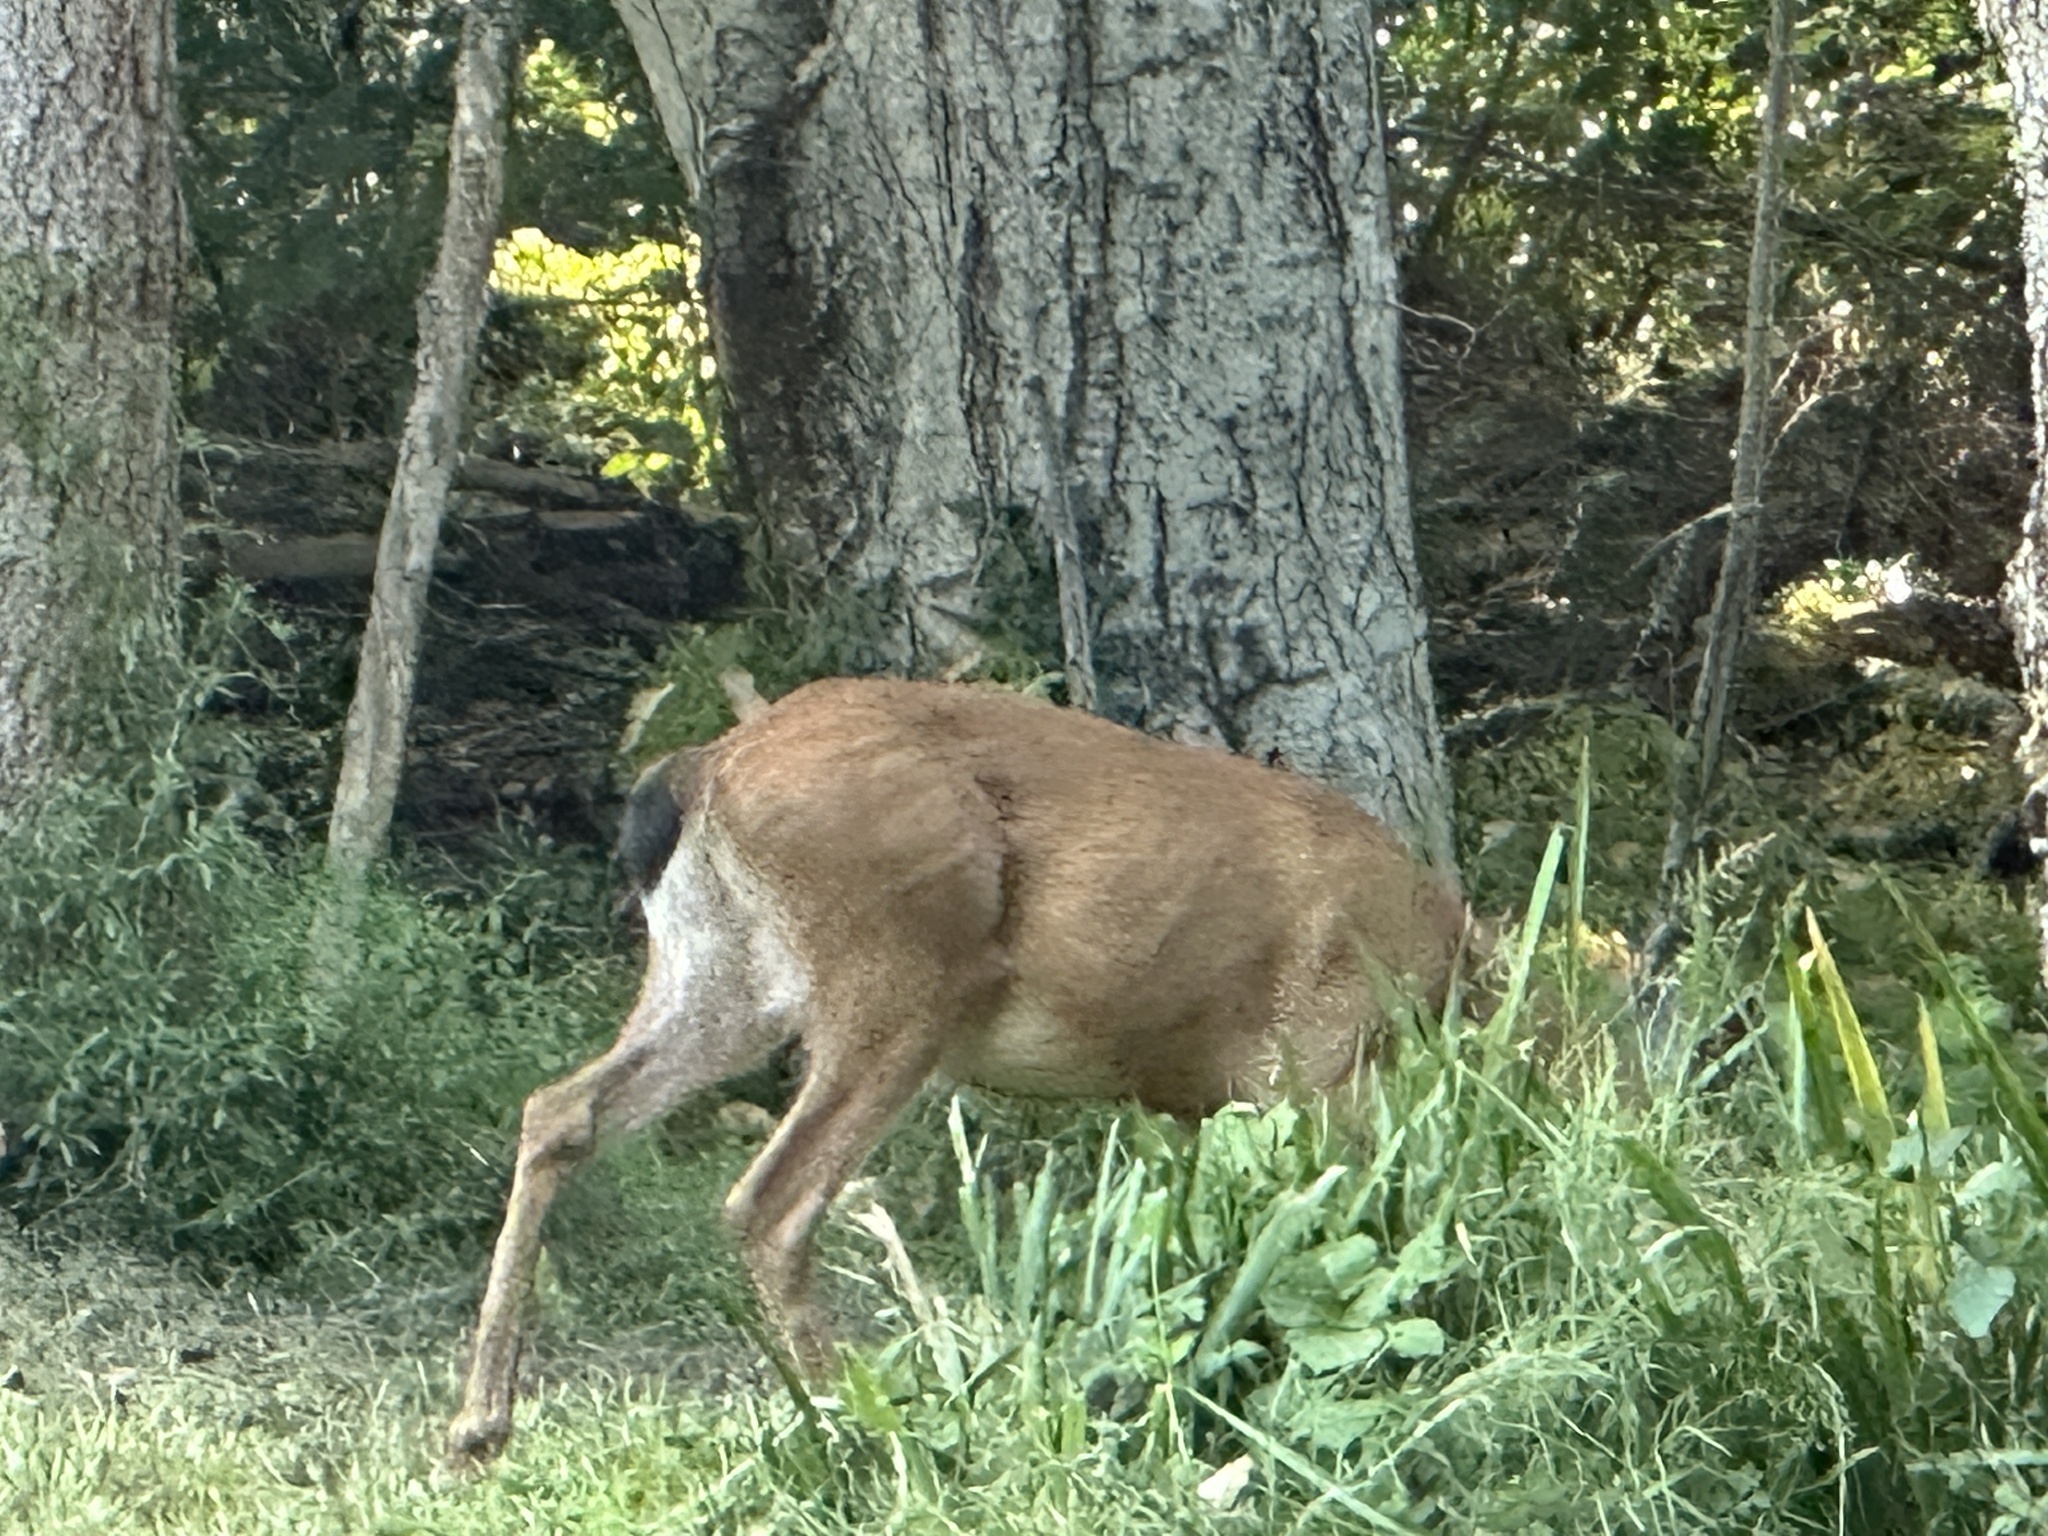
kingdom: Animalia
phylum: Chordata
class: Mammalia
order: Artiodactyla
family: Cervidae
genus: Odocoileus
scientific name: Odocoileus hemionus
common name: Mule deer
